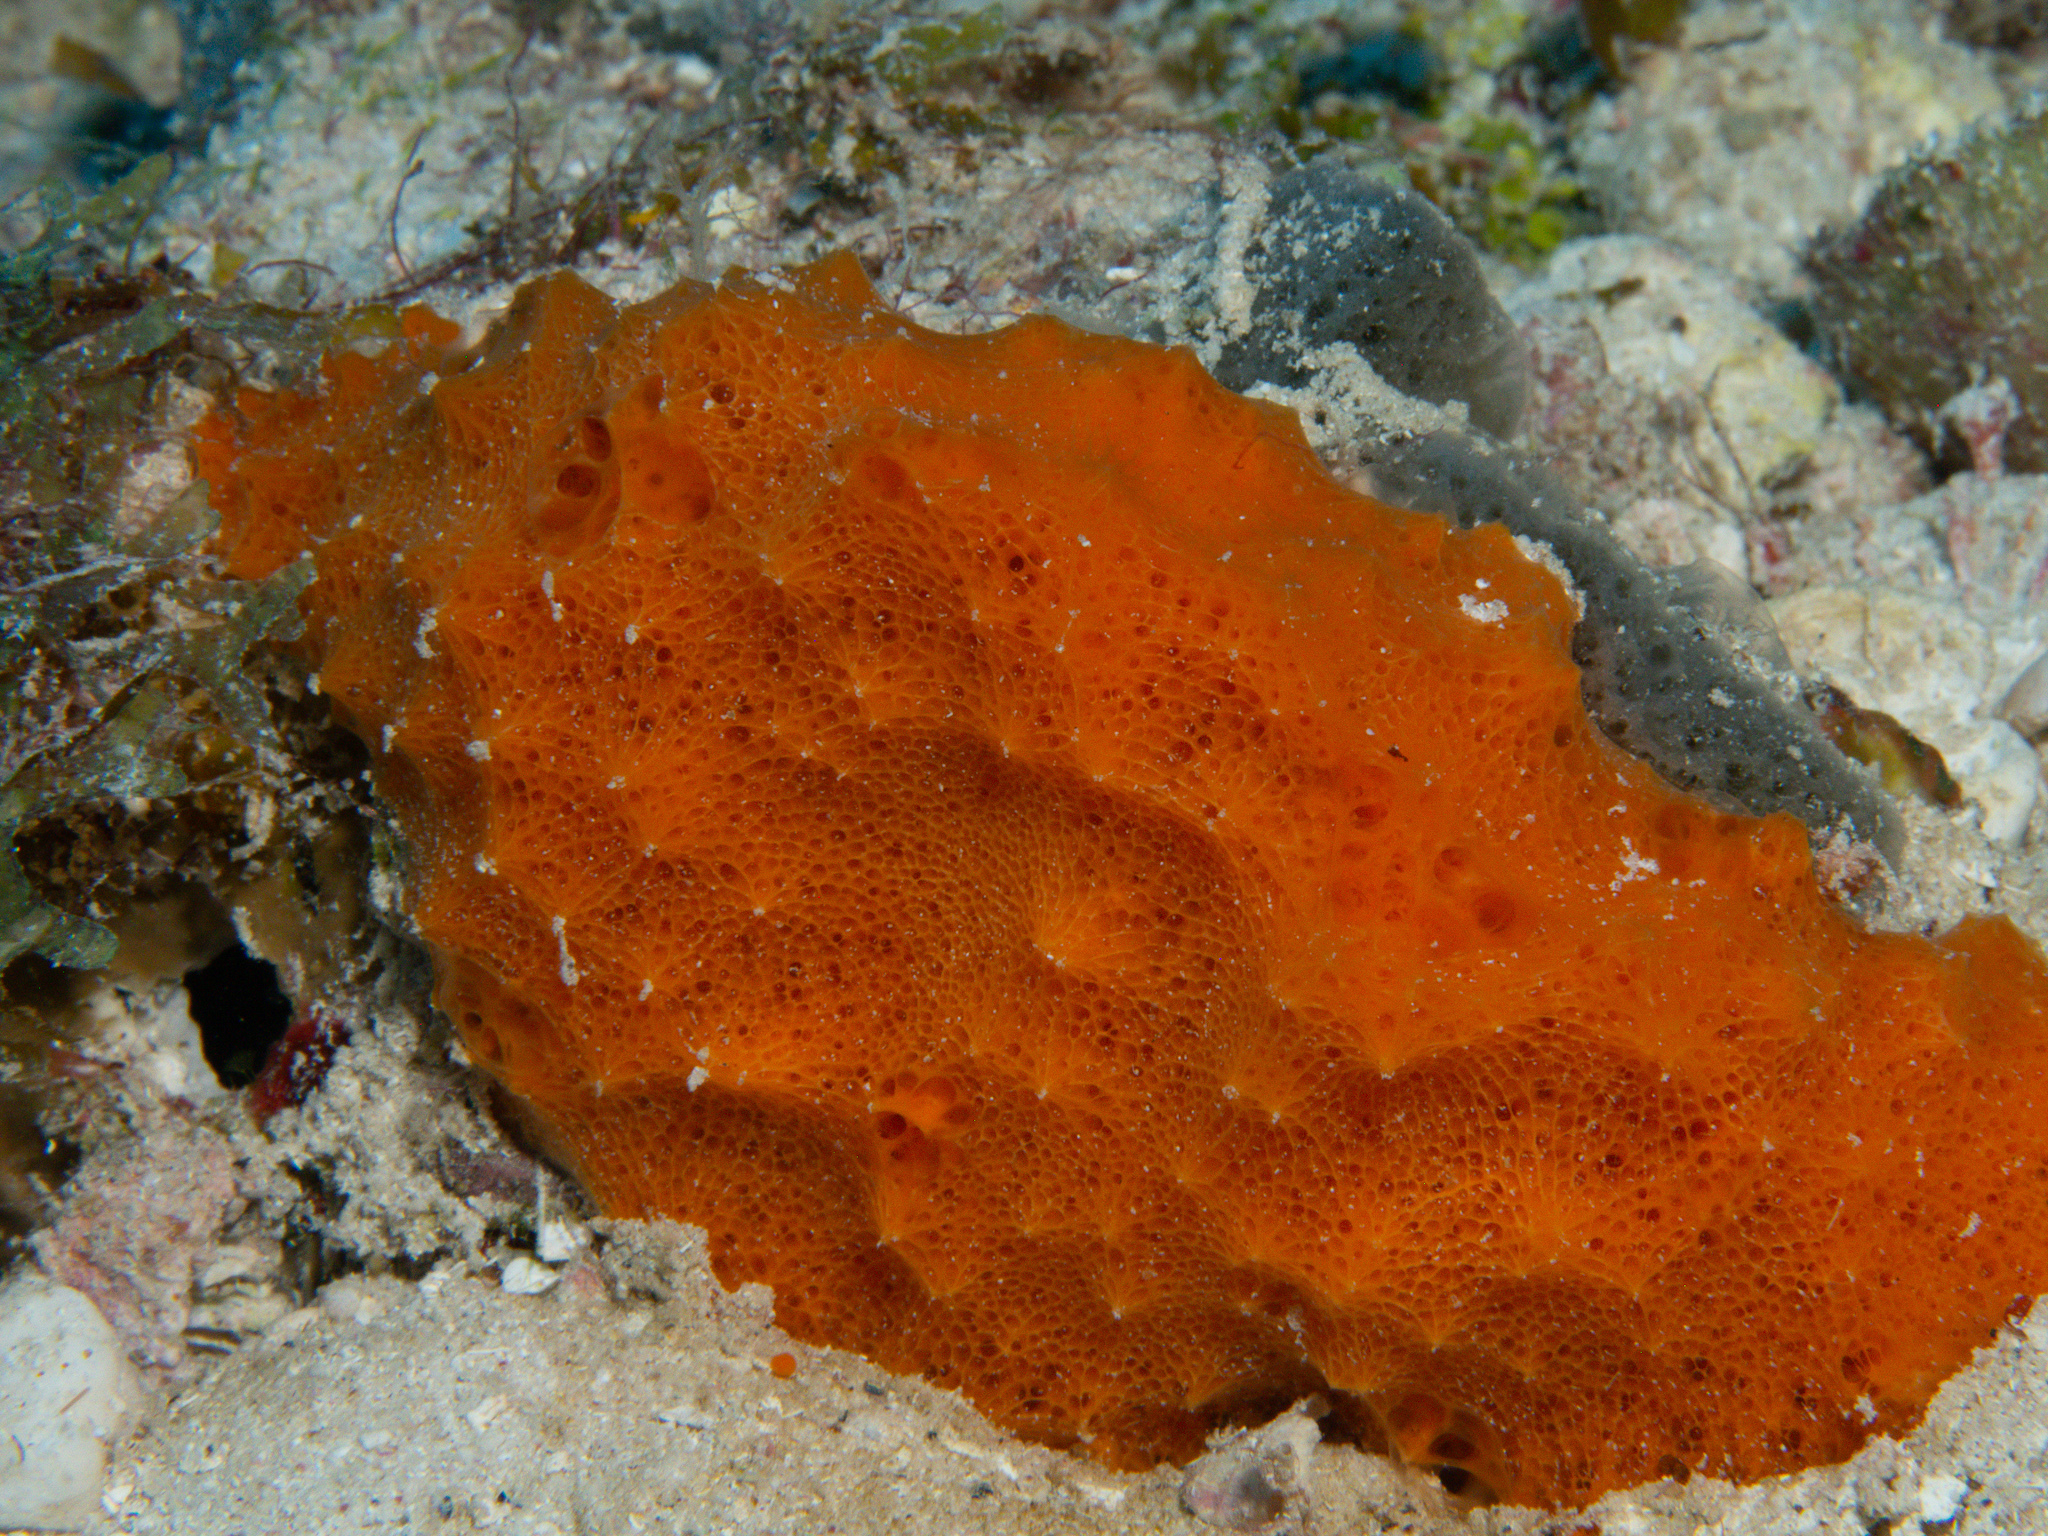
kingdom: Animalia
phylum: Porifera
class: Demospongiae
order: Scopalinida
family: Scopalinidae
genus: Scopalina
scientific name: Scopalina ruetzleri
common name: Orange lumpy encrusting sponge
